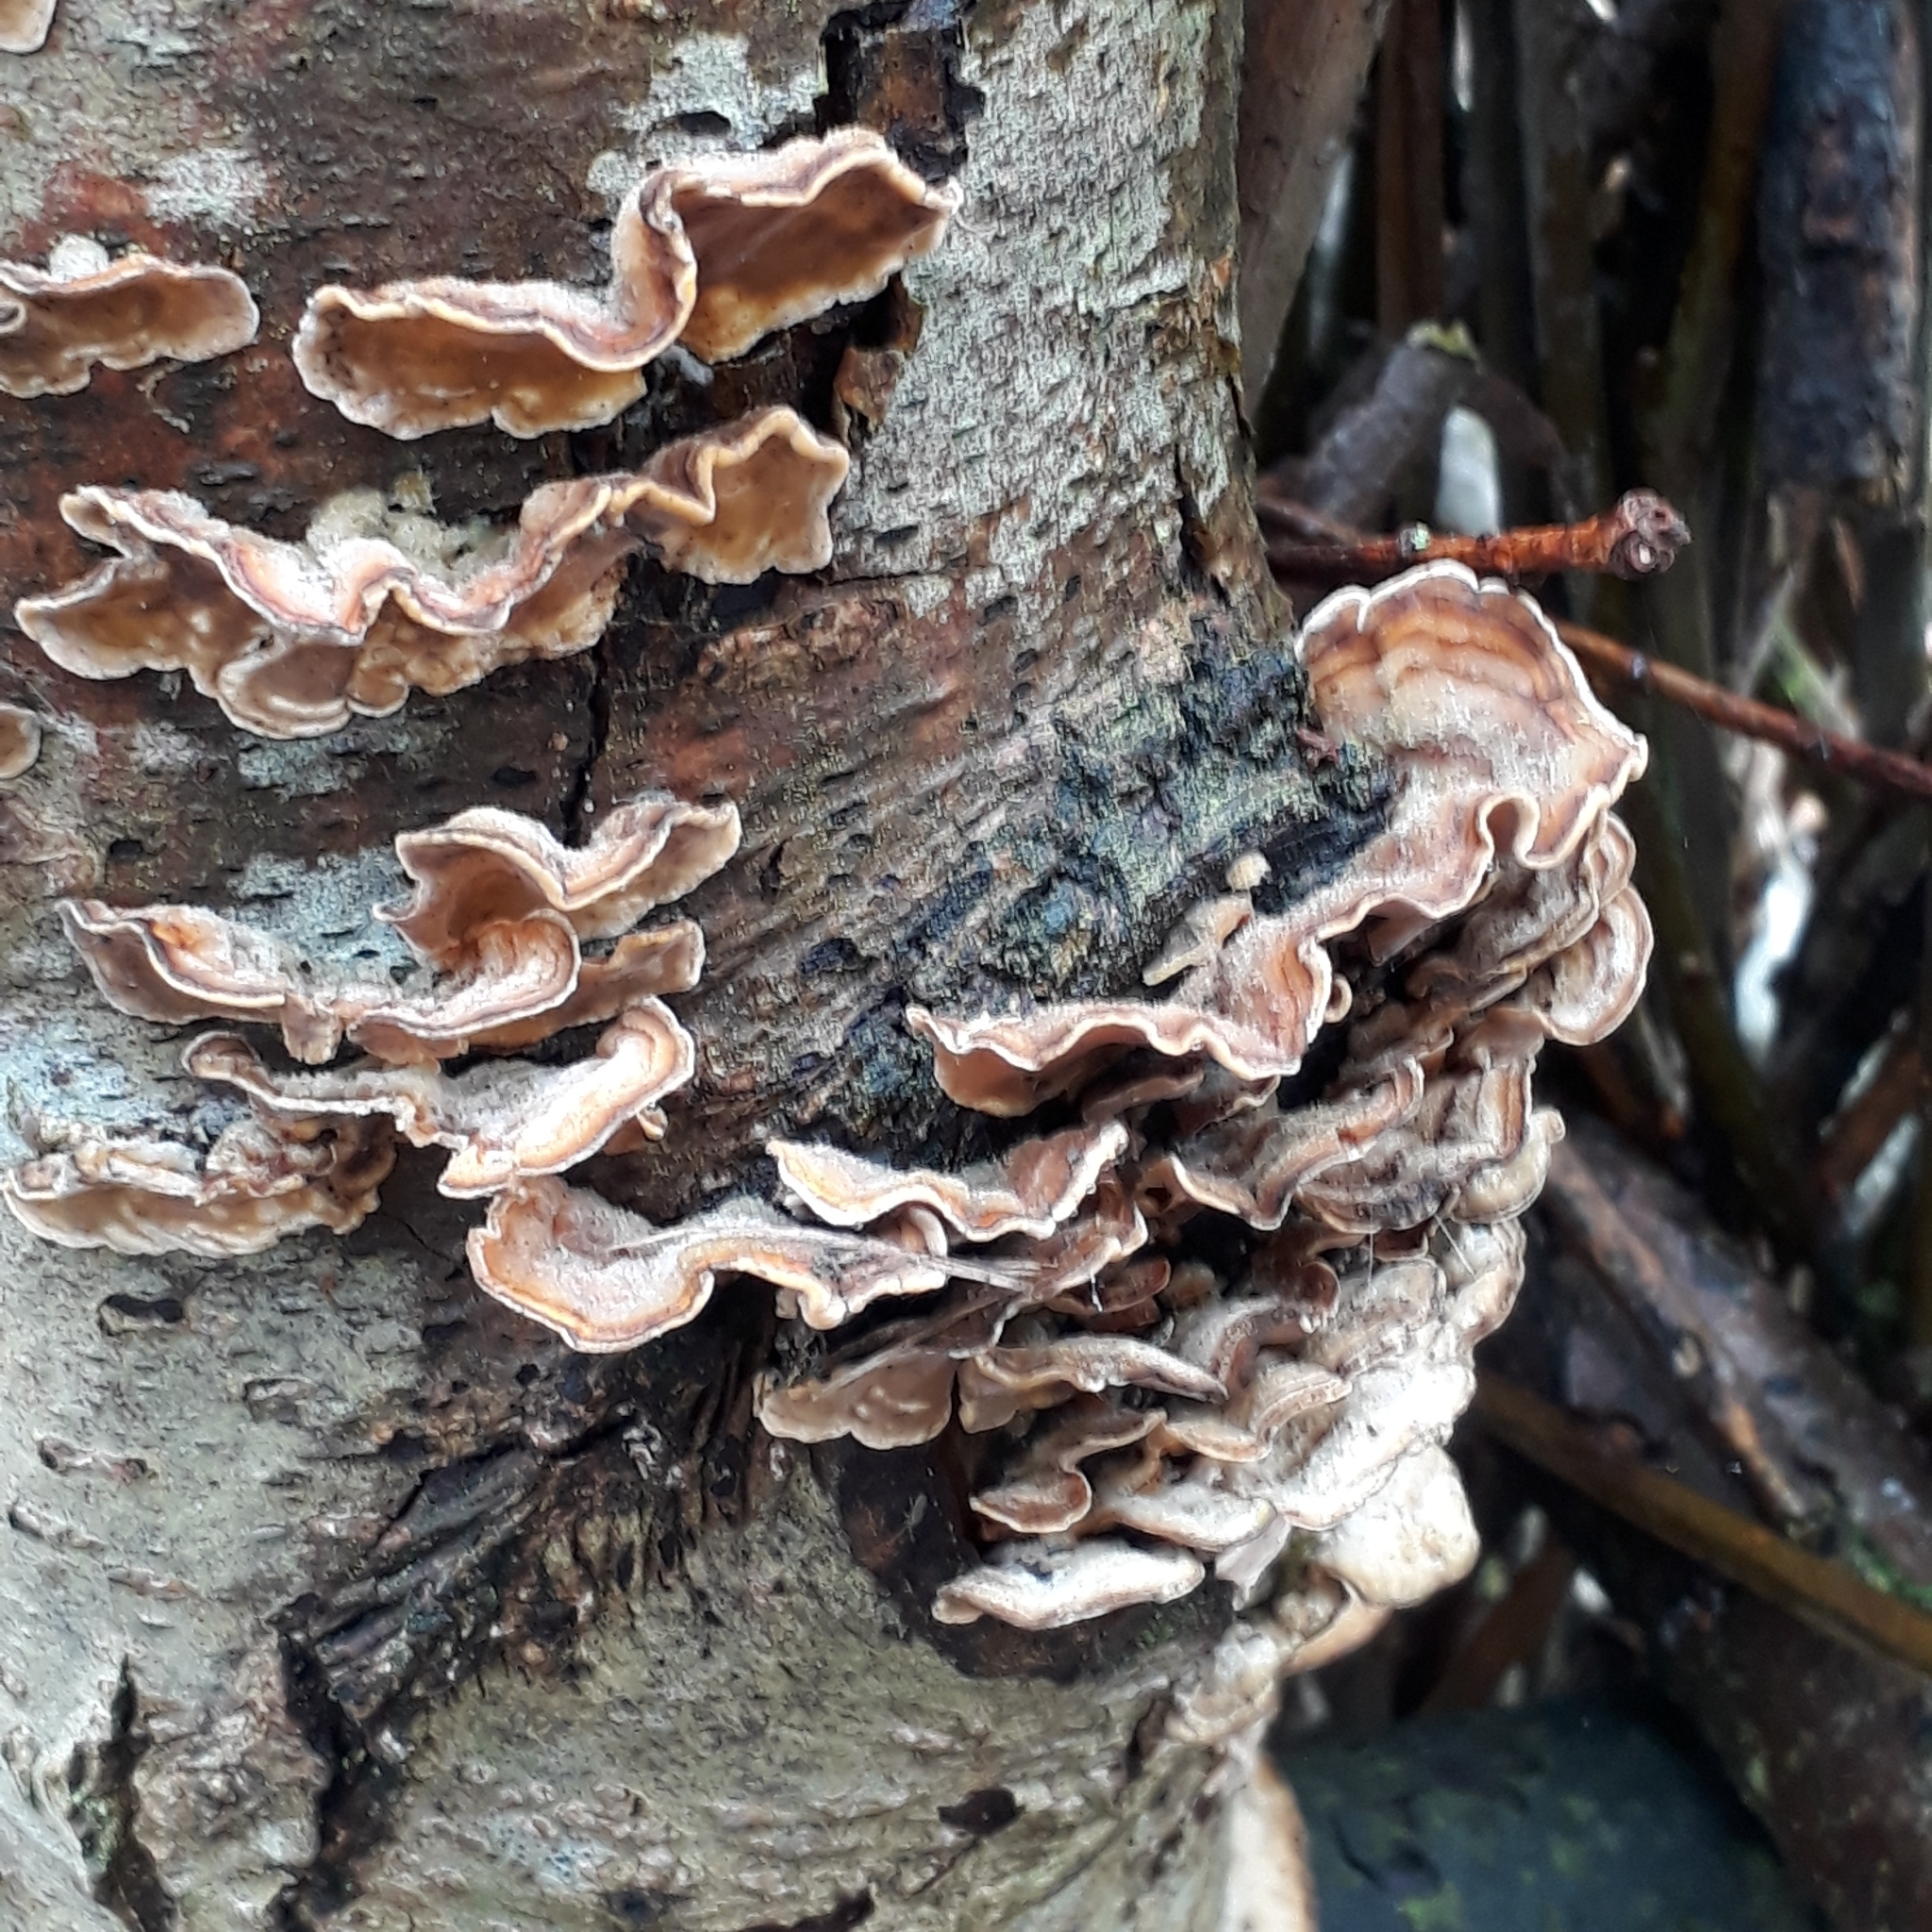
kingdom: Fungi
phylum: Basidiomycota
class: Agaricomycetes
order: Russulales
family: Stereaceae
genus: Stereum
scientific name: Stereum hirsutum
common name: Hairy curtain crust
